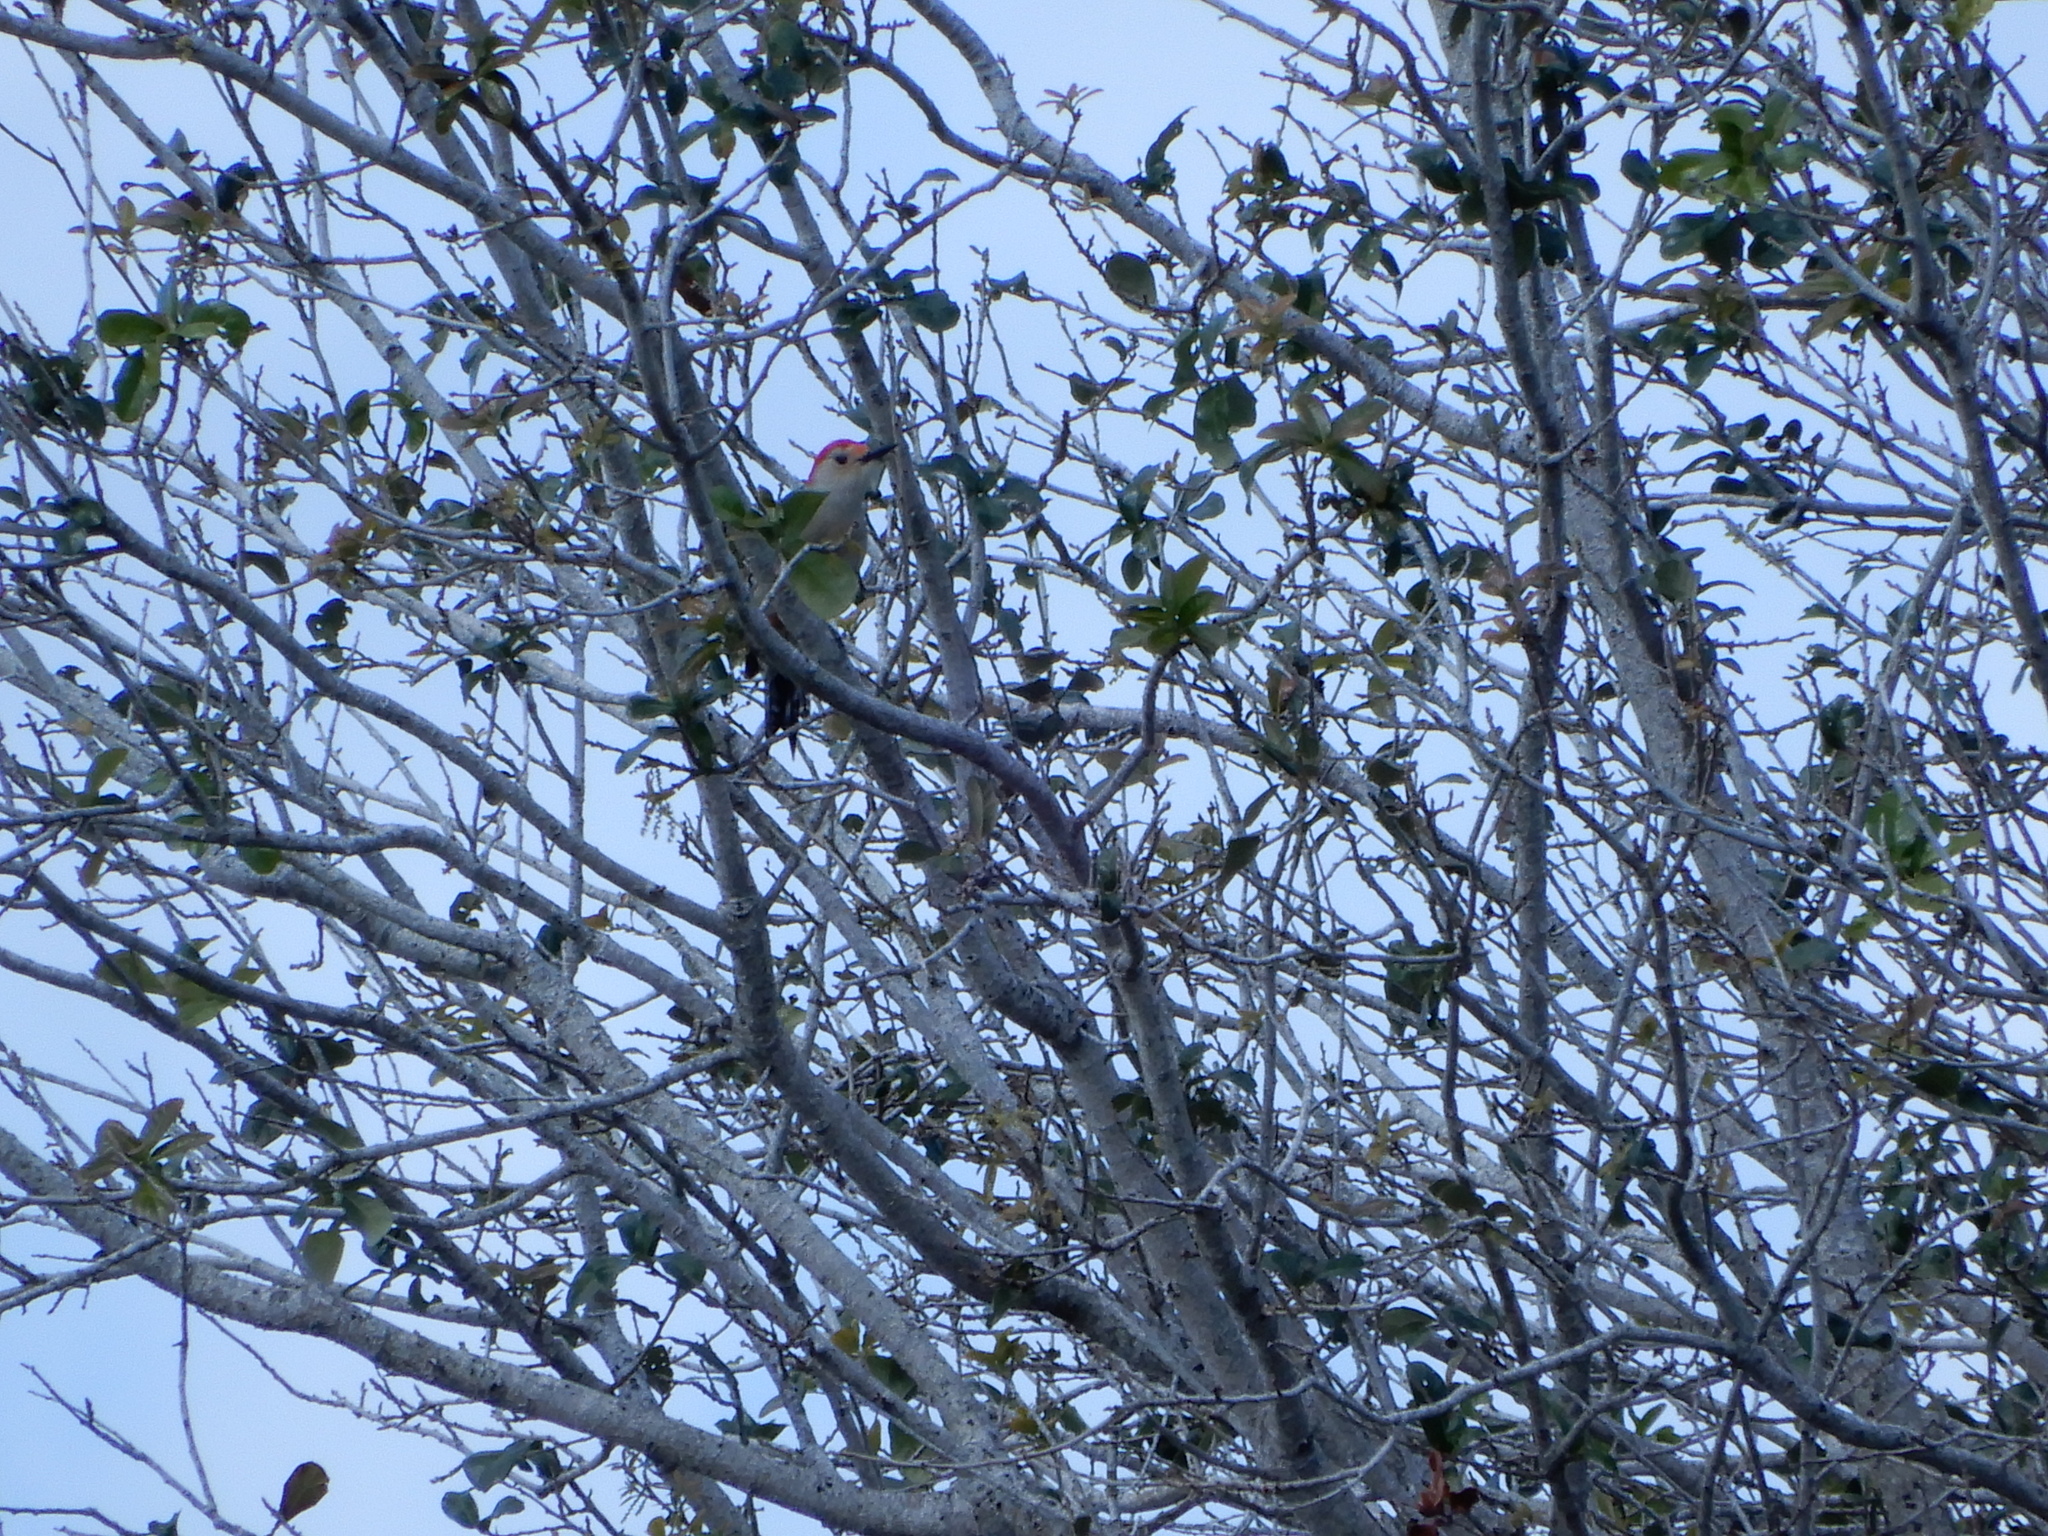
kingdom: Animalia
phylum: Chordata
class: Aves
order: Piciformes
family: Picidae
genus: Melanerpes
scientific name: Melanerpes carolinus
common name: Red-bellied woodpecker
